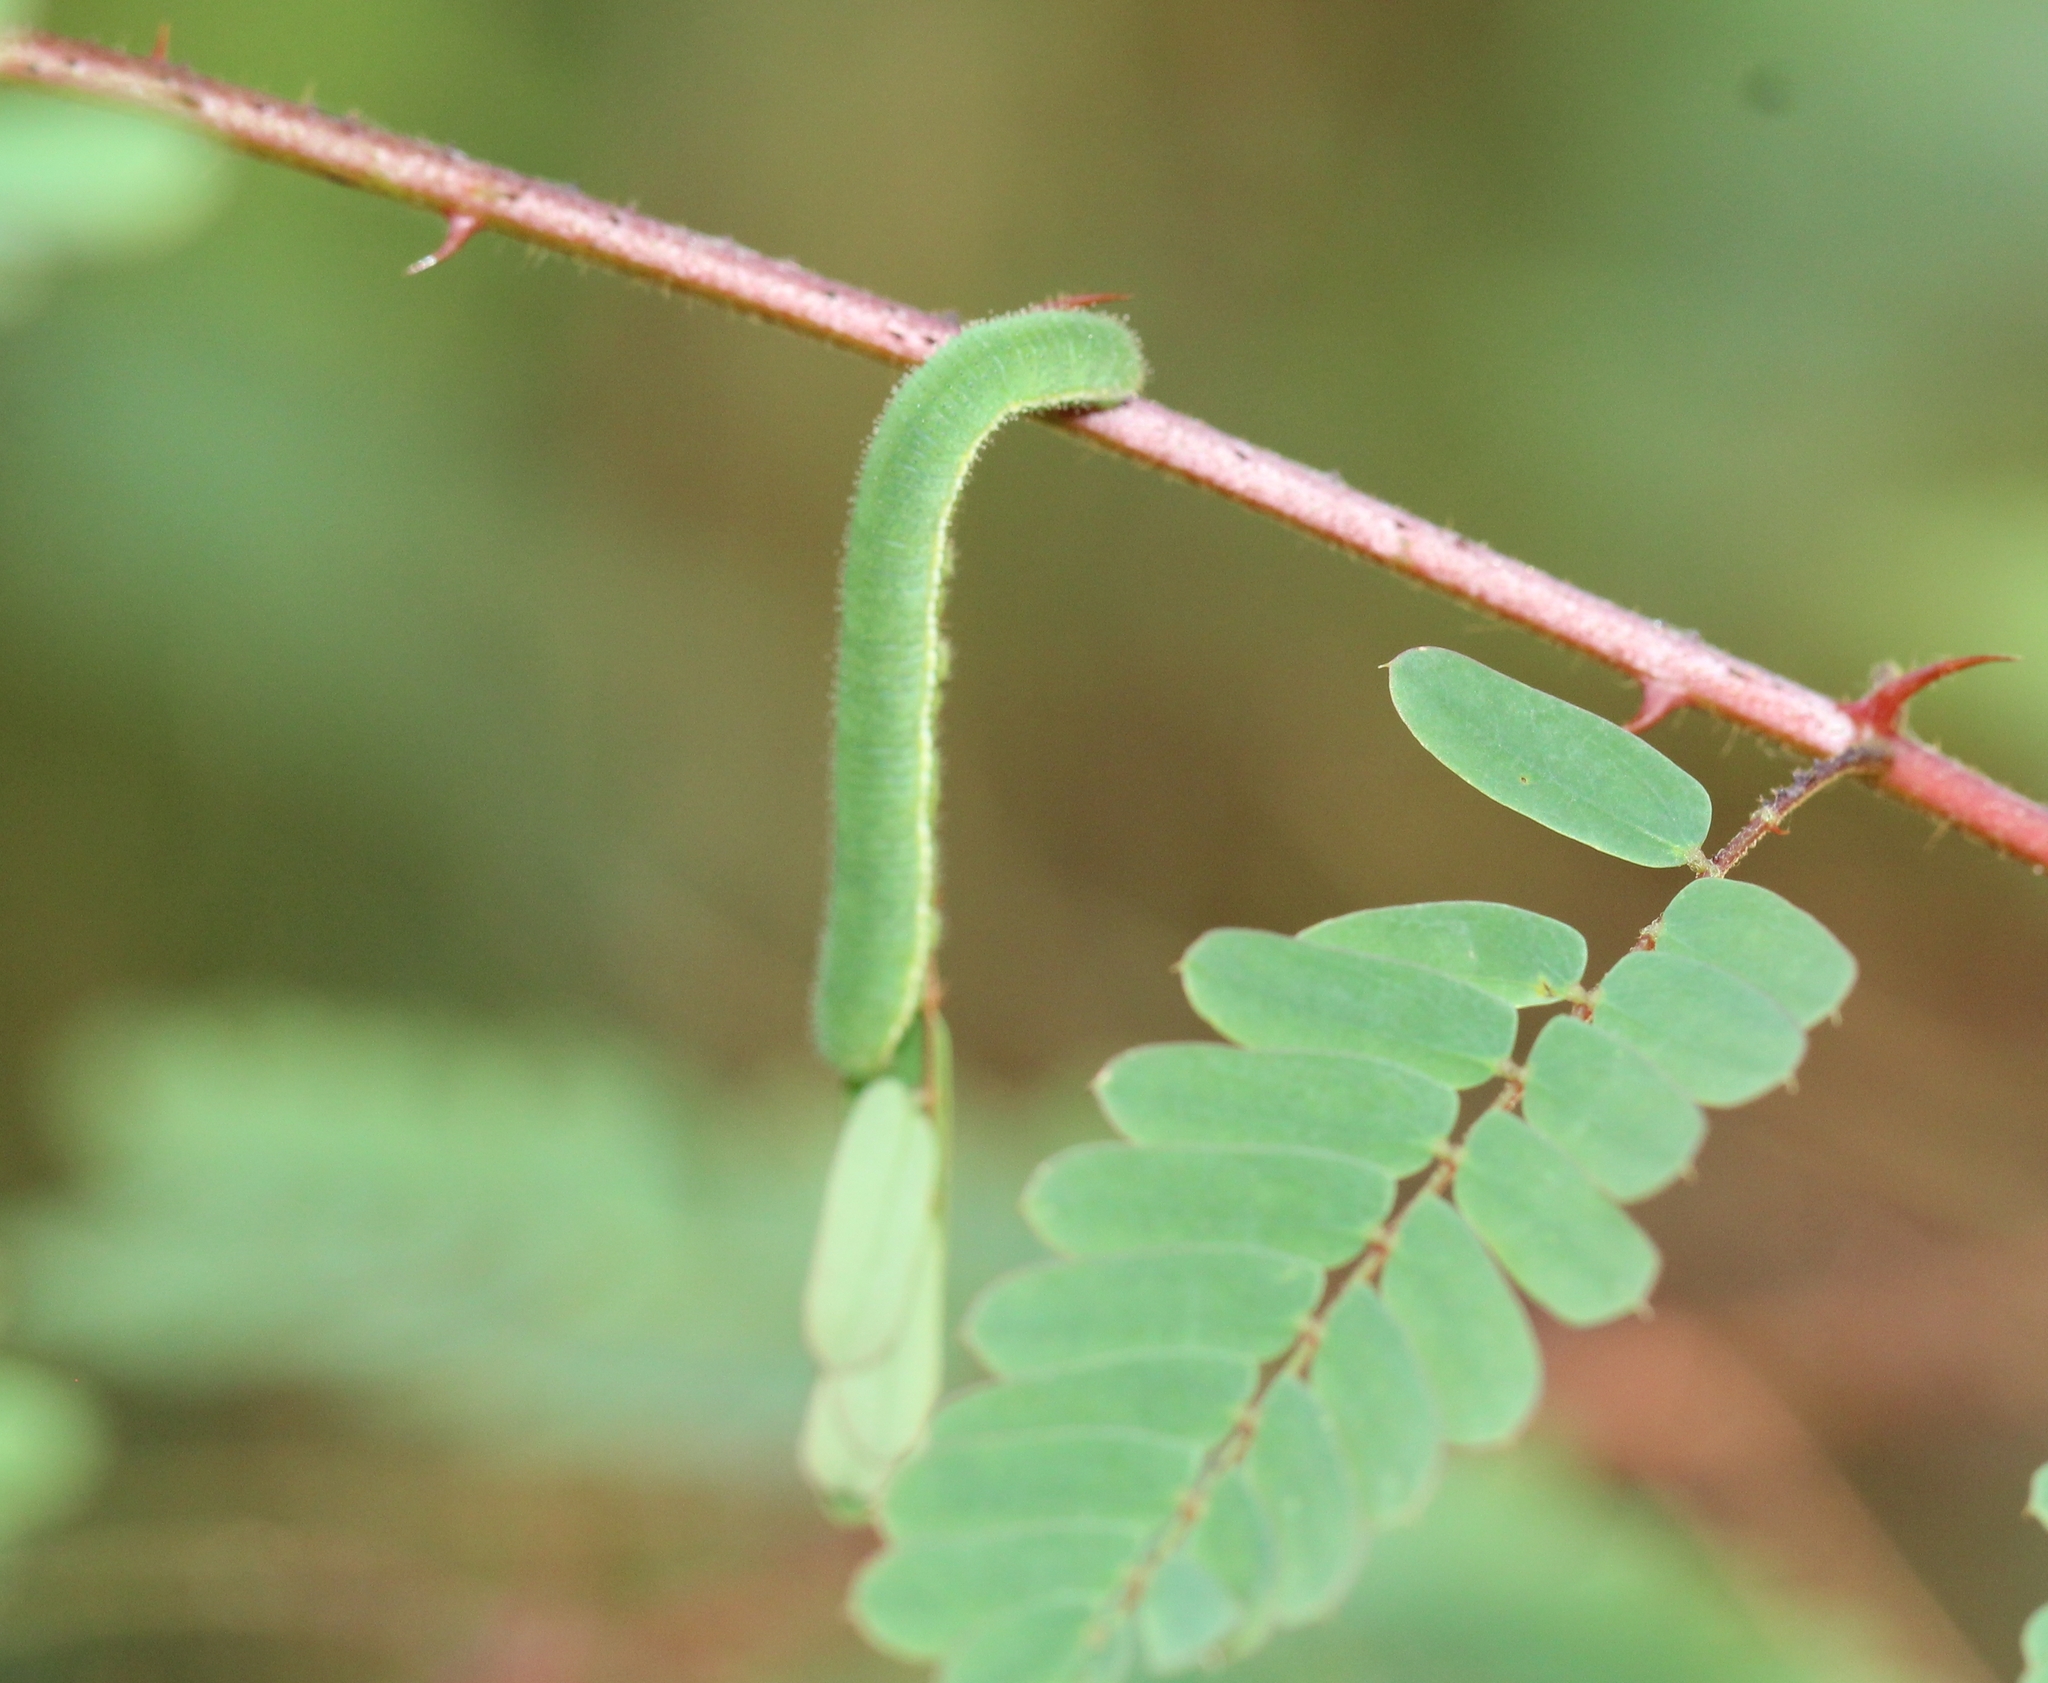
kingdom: Animalia
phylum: Arthropoda
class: Insecta
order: Lepidoptera
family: Pieridae
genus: Eurema
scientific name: Eurema hecabe
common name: Pale grass yellow
